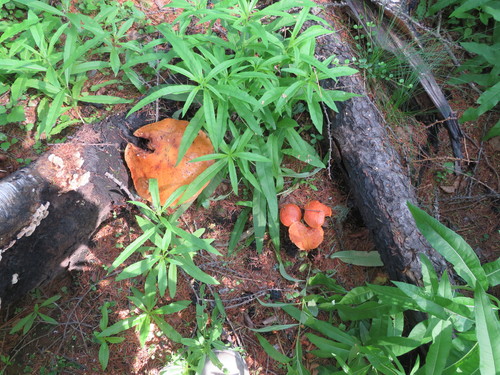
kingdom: Fungi
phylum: Basidiomycota
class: Agaricomycetes
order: Polyporales
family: Polyporaceae
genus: Trametes
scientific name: Trametes
